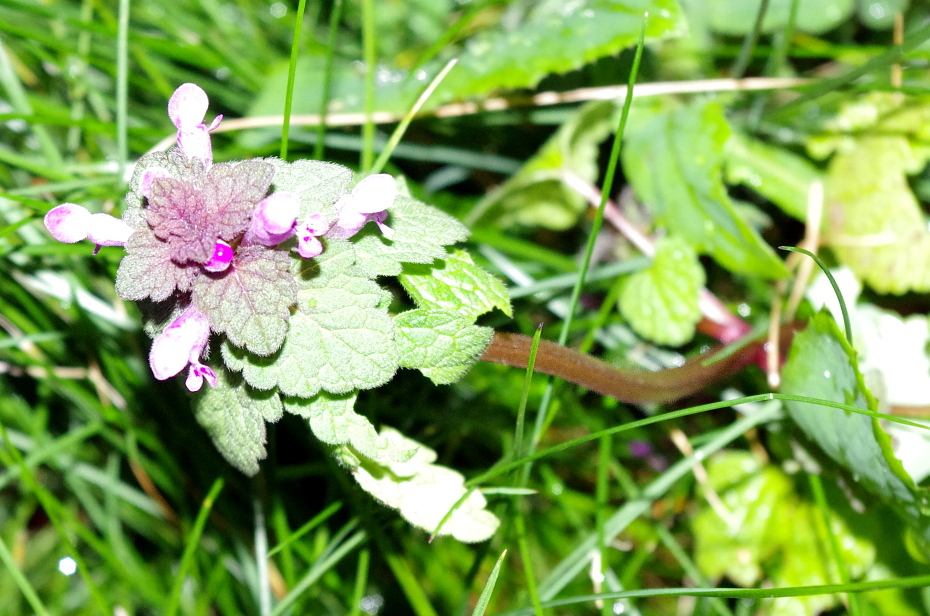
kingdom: Plantae
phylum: Tracheophyta
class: Magnoliopsida
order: Lamiales
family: Lamiaceae
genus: Lamium
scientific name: Lamium purpureum
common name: Red dead-nettle
